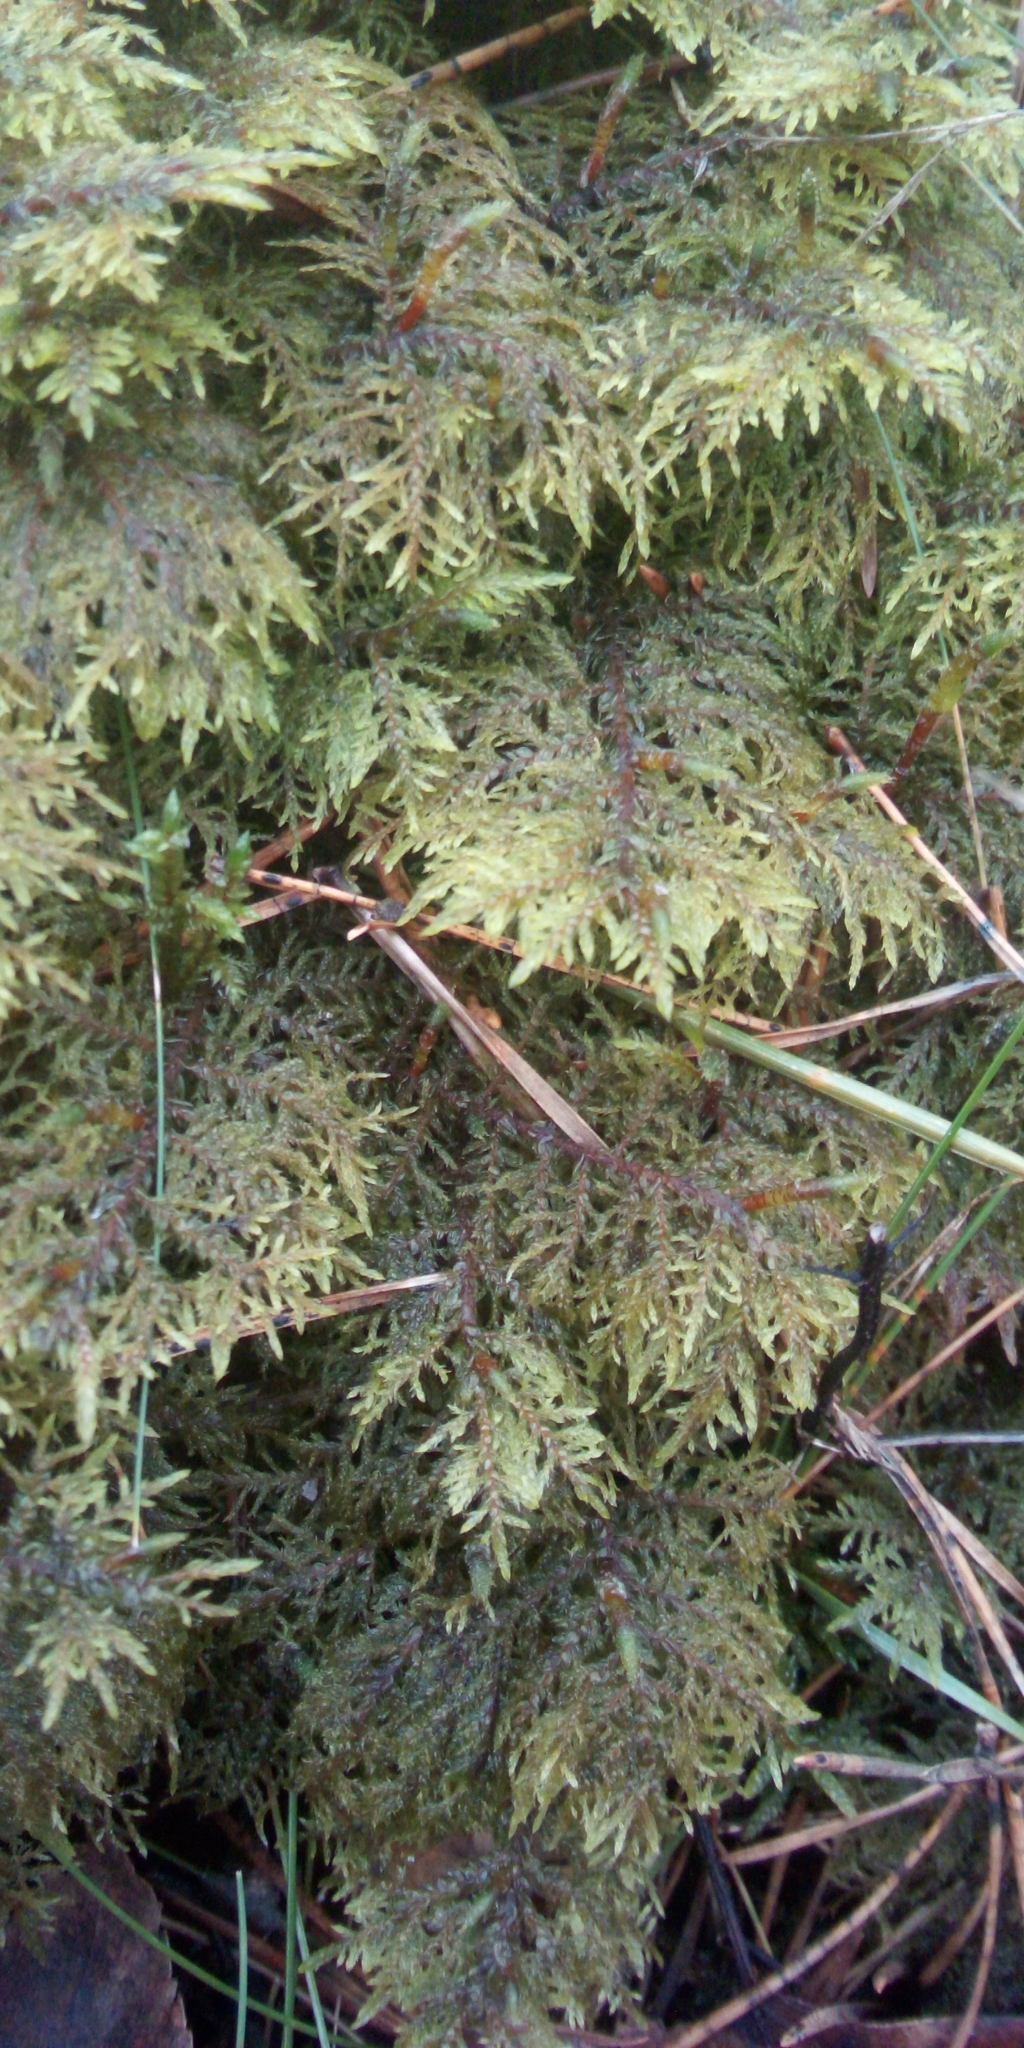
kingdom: Plantae
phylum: Bryophyta
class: Bryopsida
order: Hypnales
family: Hylocomiaceae
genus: Hylocomium
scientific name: Hylocomium splendens
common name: Stairstep moss
